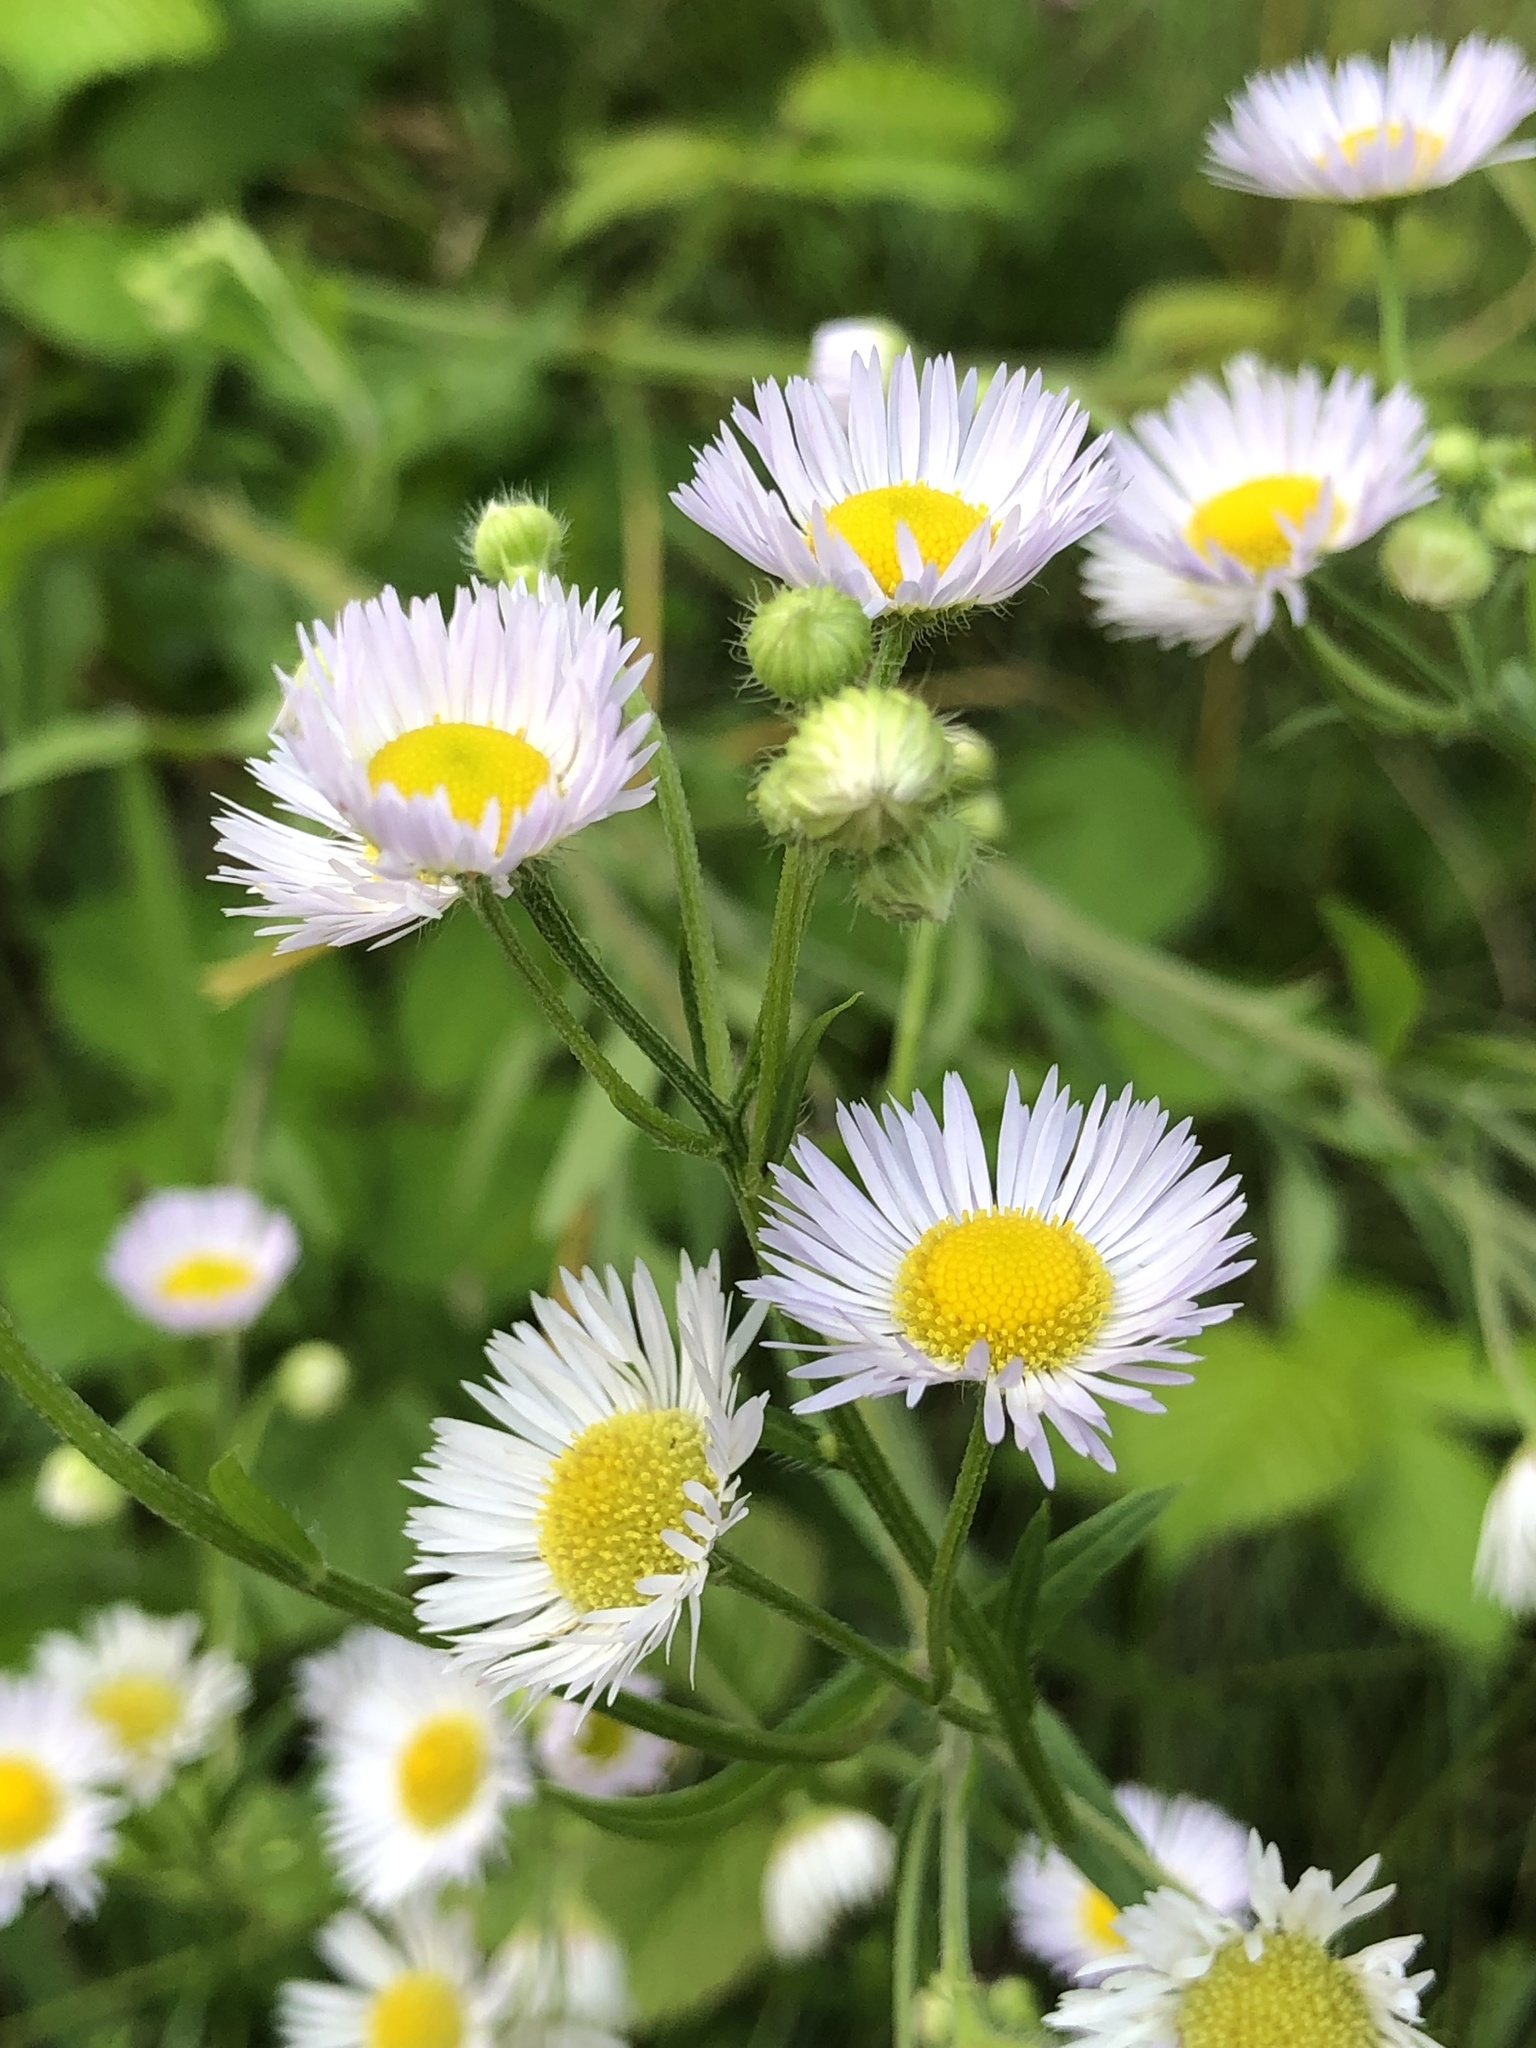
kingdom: Plantae
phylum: Tracheophyta
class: Magnoliopsida
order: Asterales
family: Asteraceae
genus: Erigeron
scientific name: Erigeron annuus
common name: Tall fleabane
